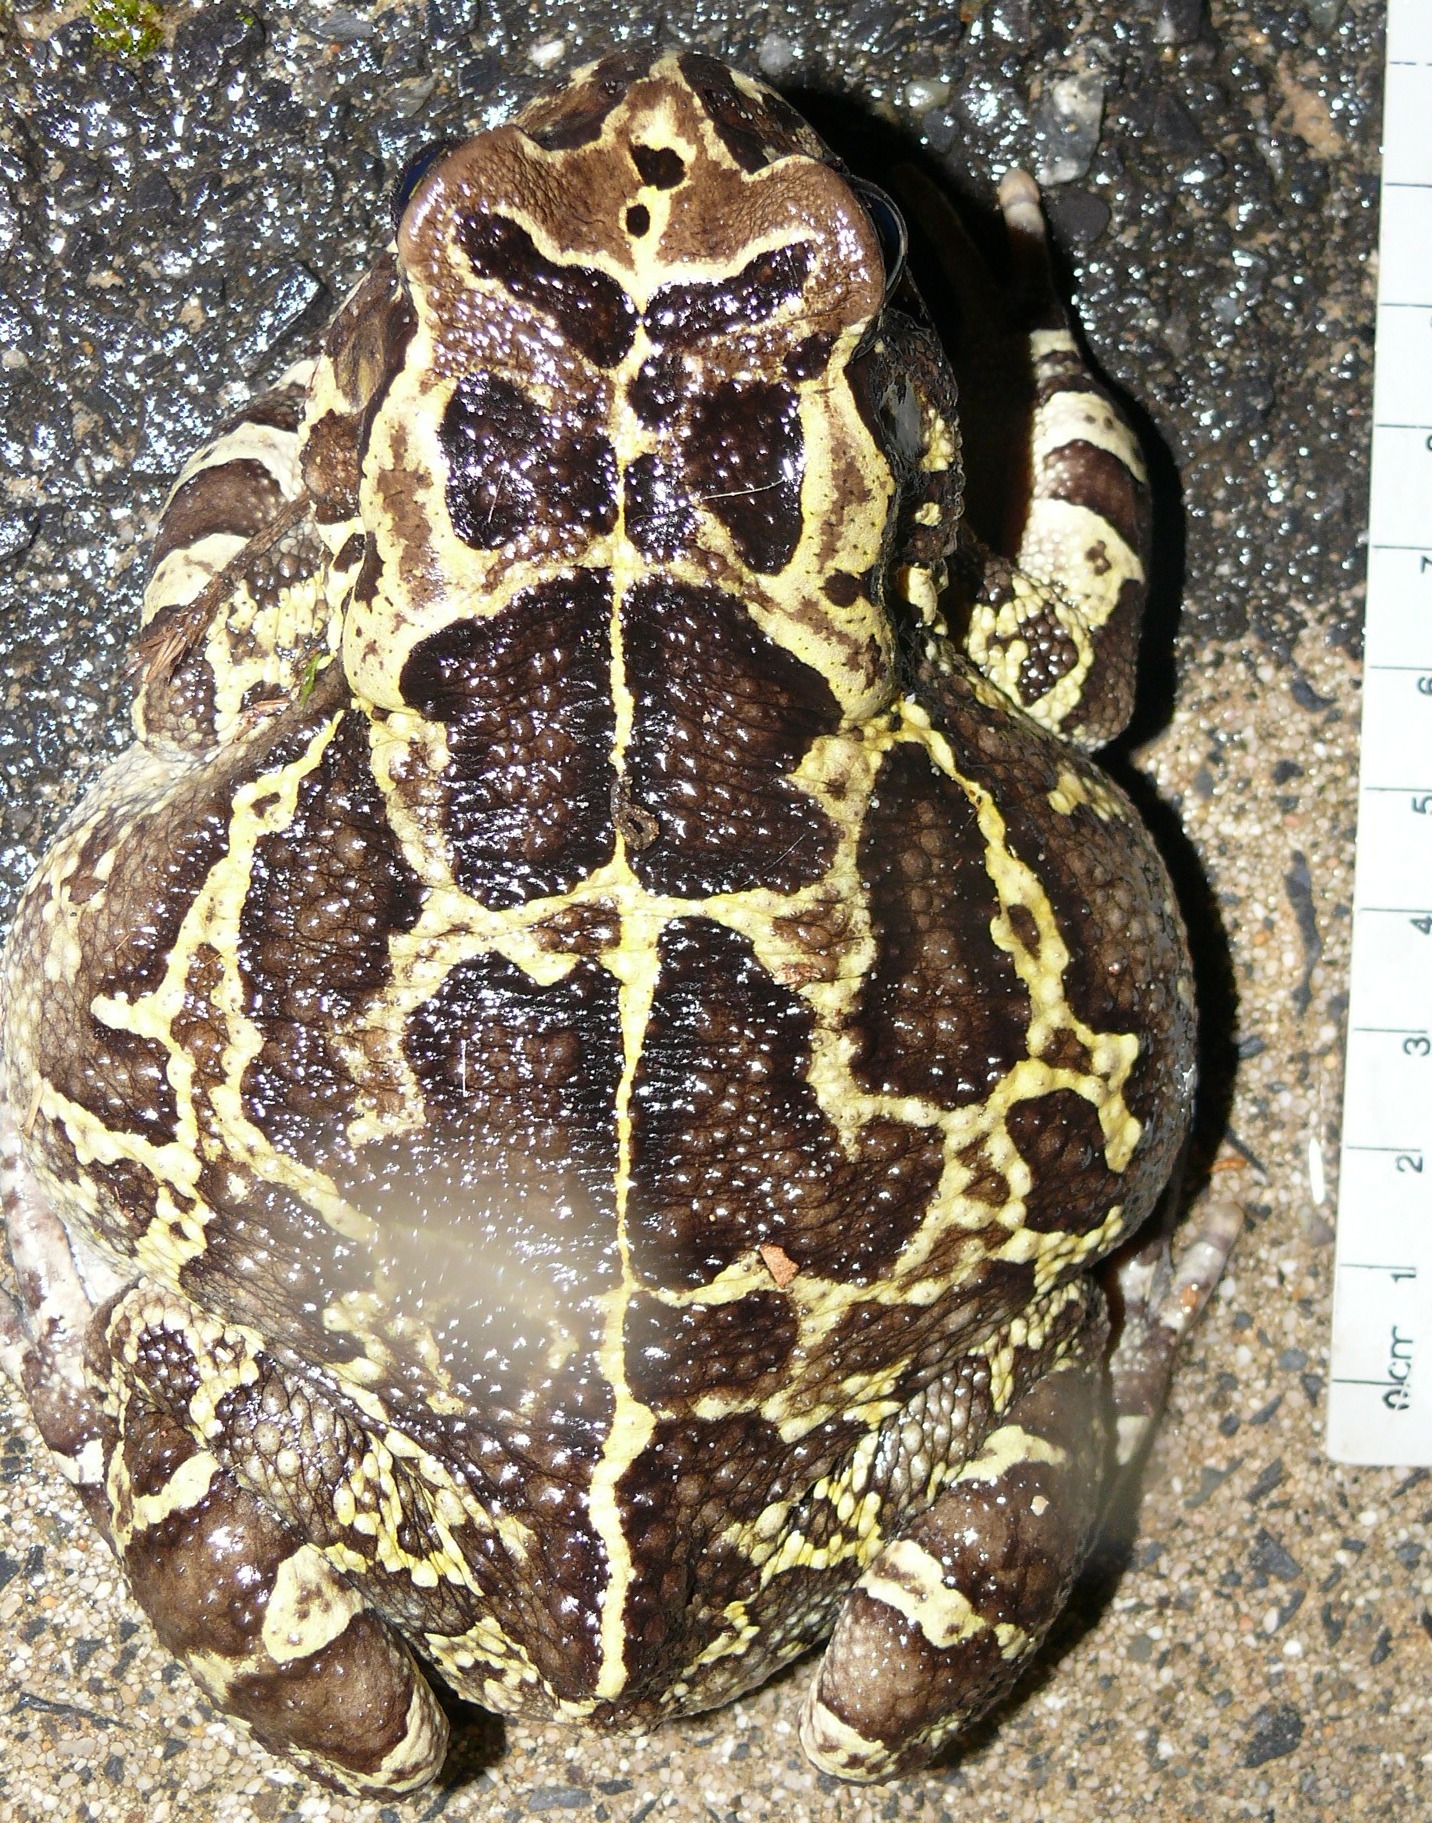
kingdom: Animalia
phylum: Chordata
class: Amphibia
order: Anura
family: Bufonidae
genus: Sclerophrys
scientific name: Sclerophrys pantherina
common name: Panther toad
